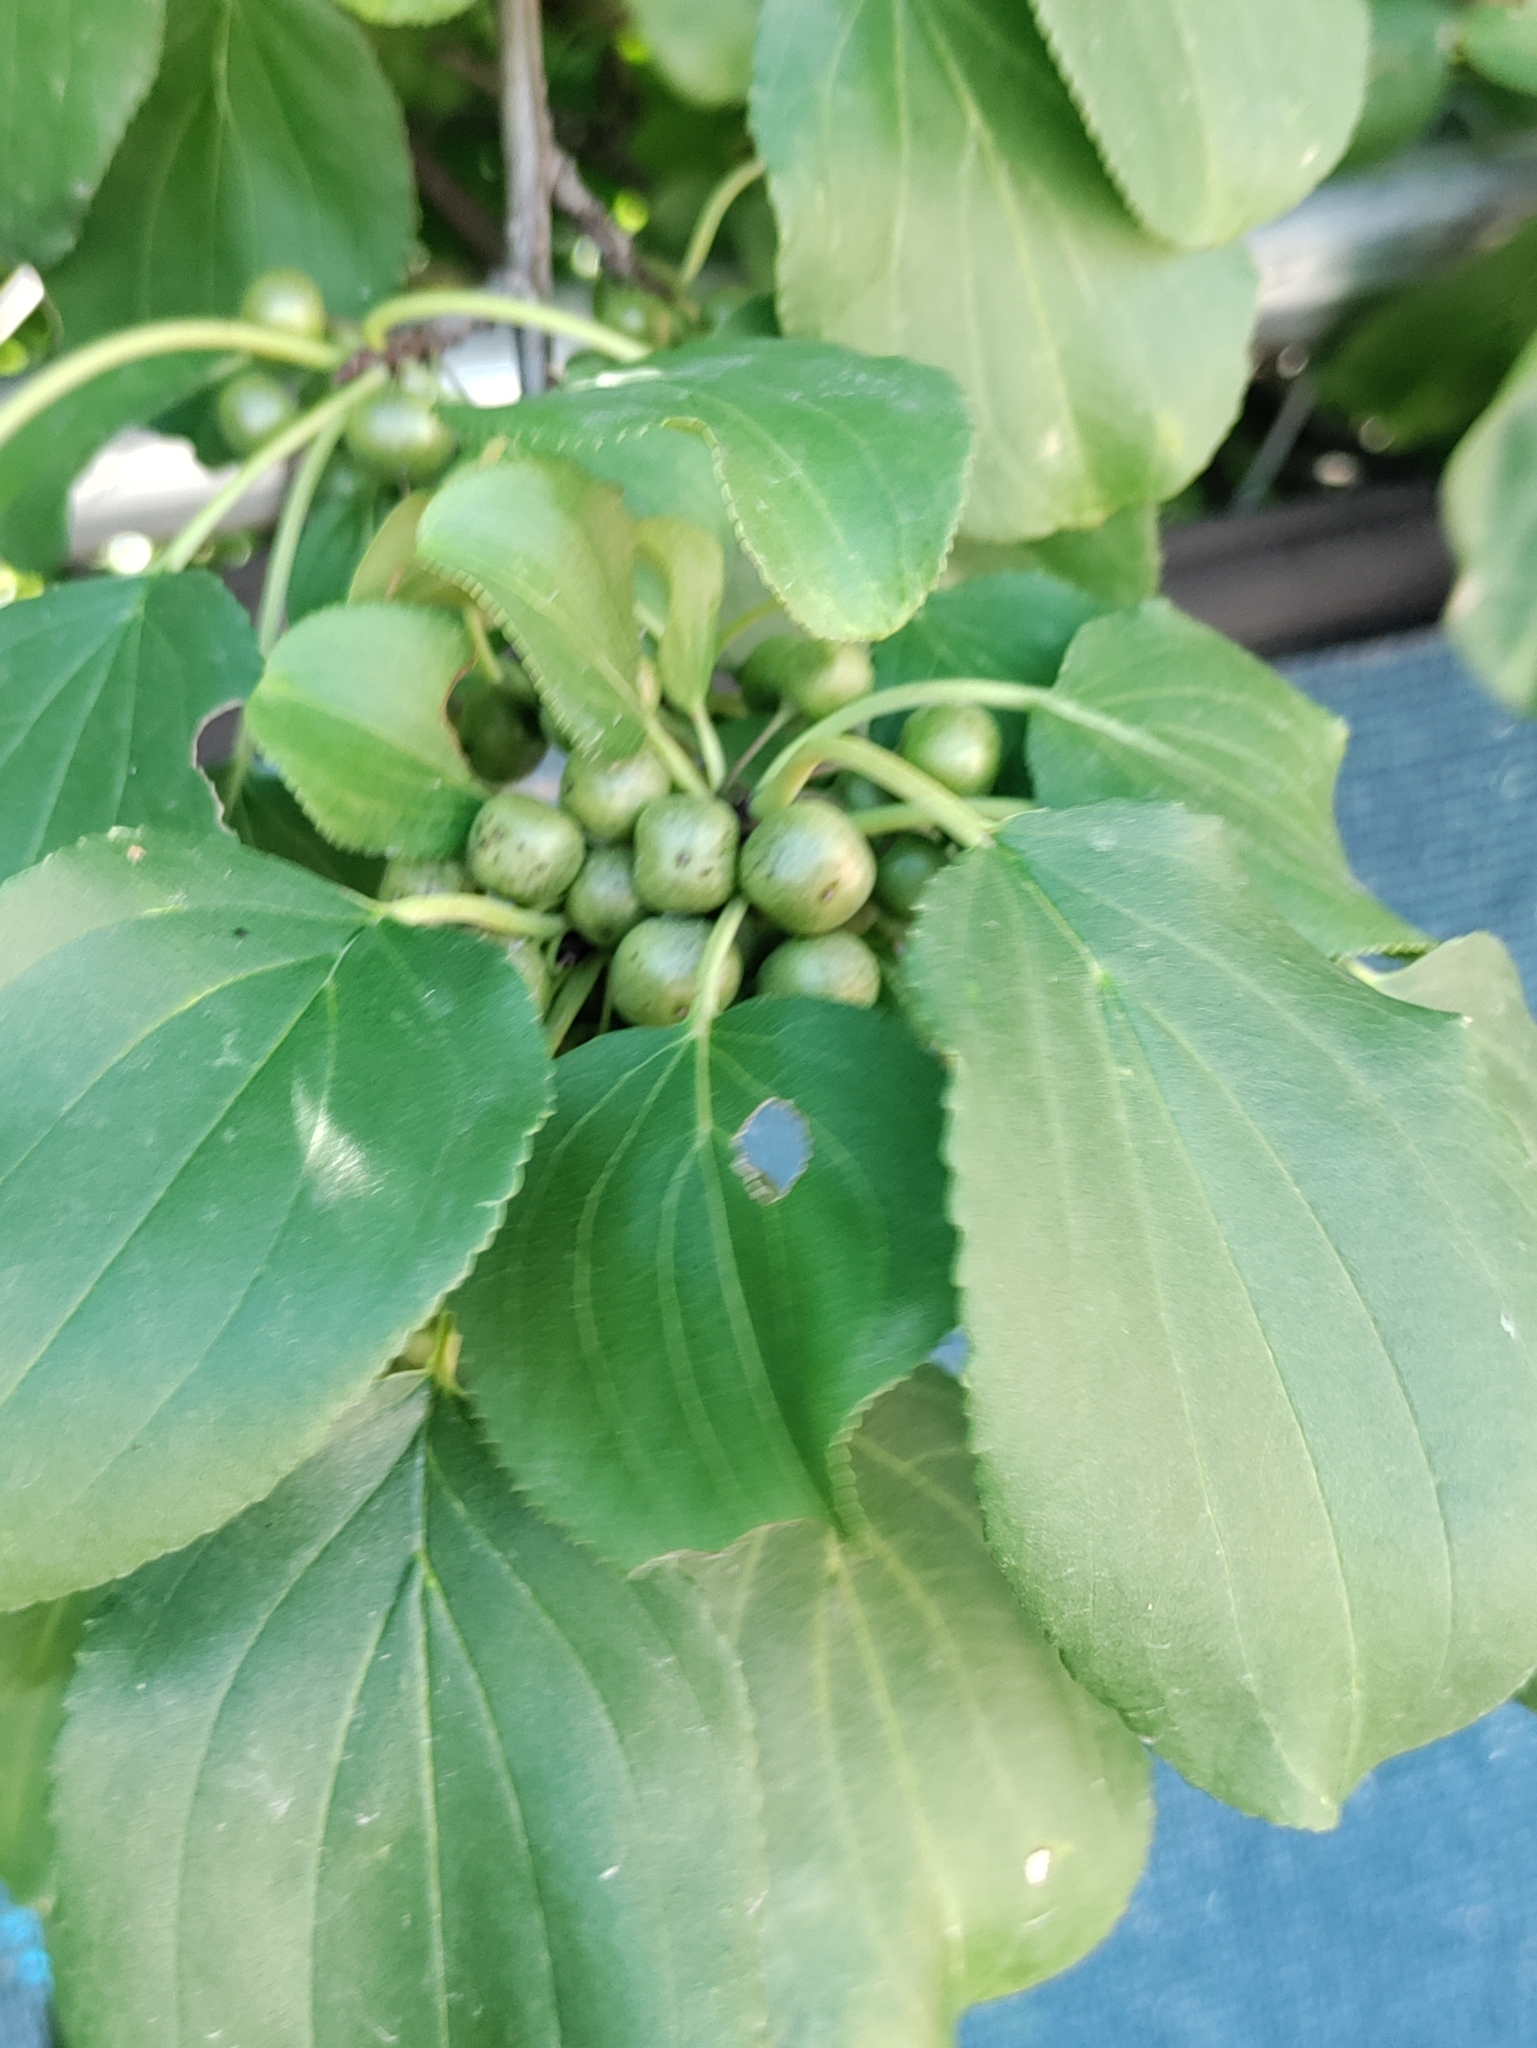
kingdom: Plantae
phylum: Tracheophyta
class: Magnoliopsida
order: Rosales
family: Rhamnaceae
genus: Rhamnus
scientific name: Rhamnus cathartica
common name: Common buckthorn
